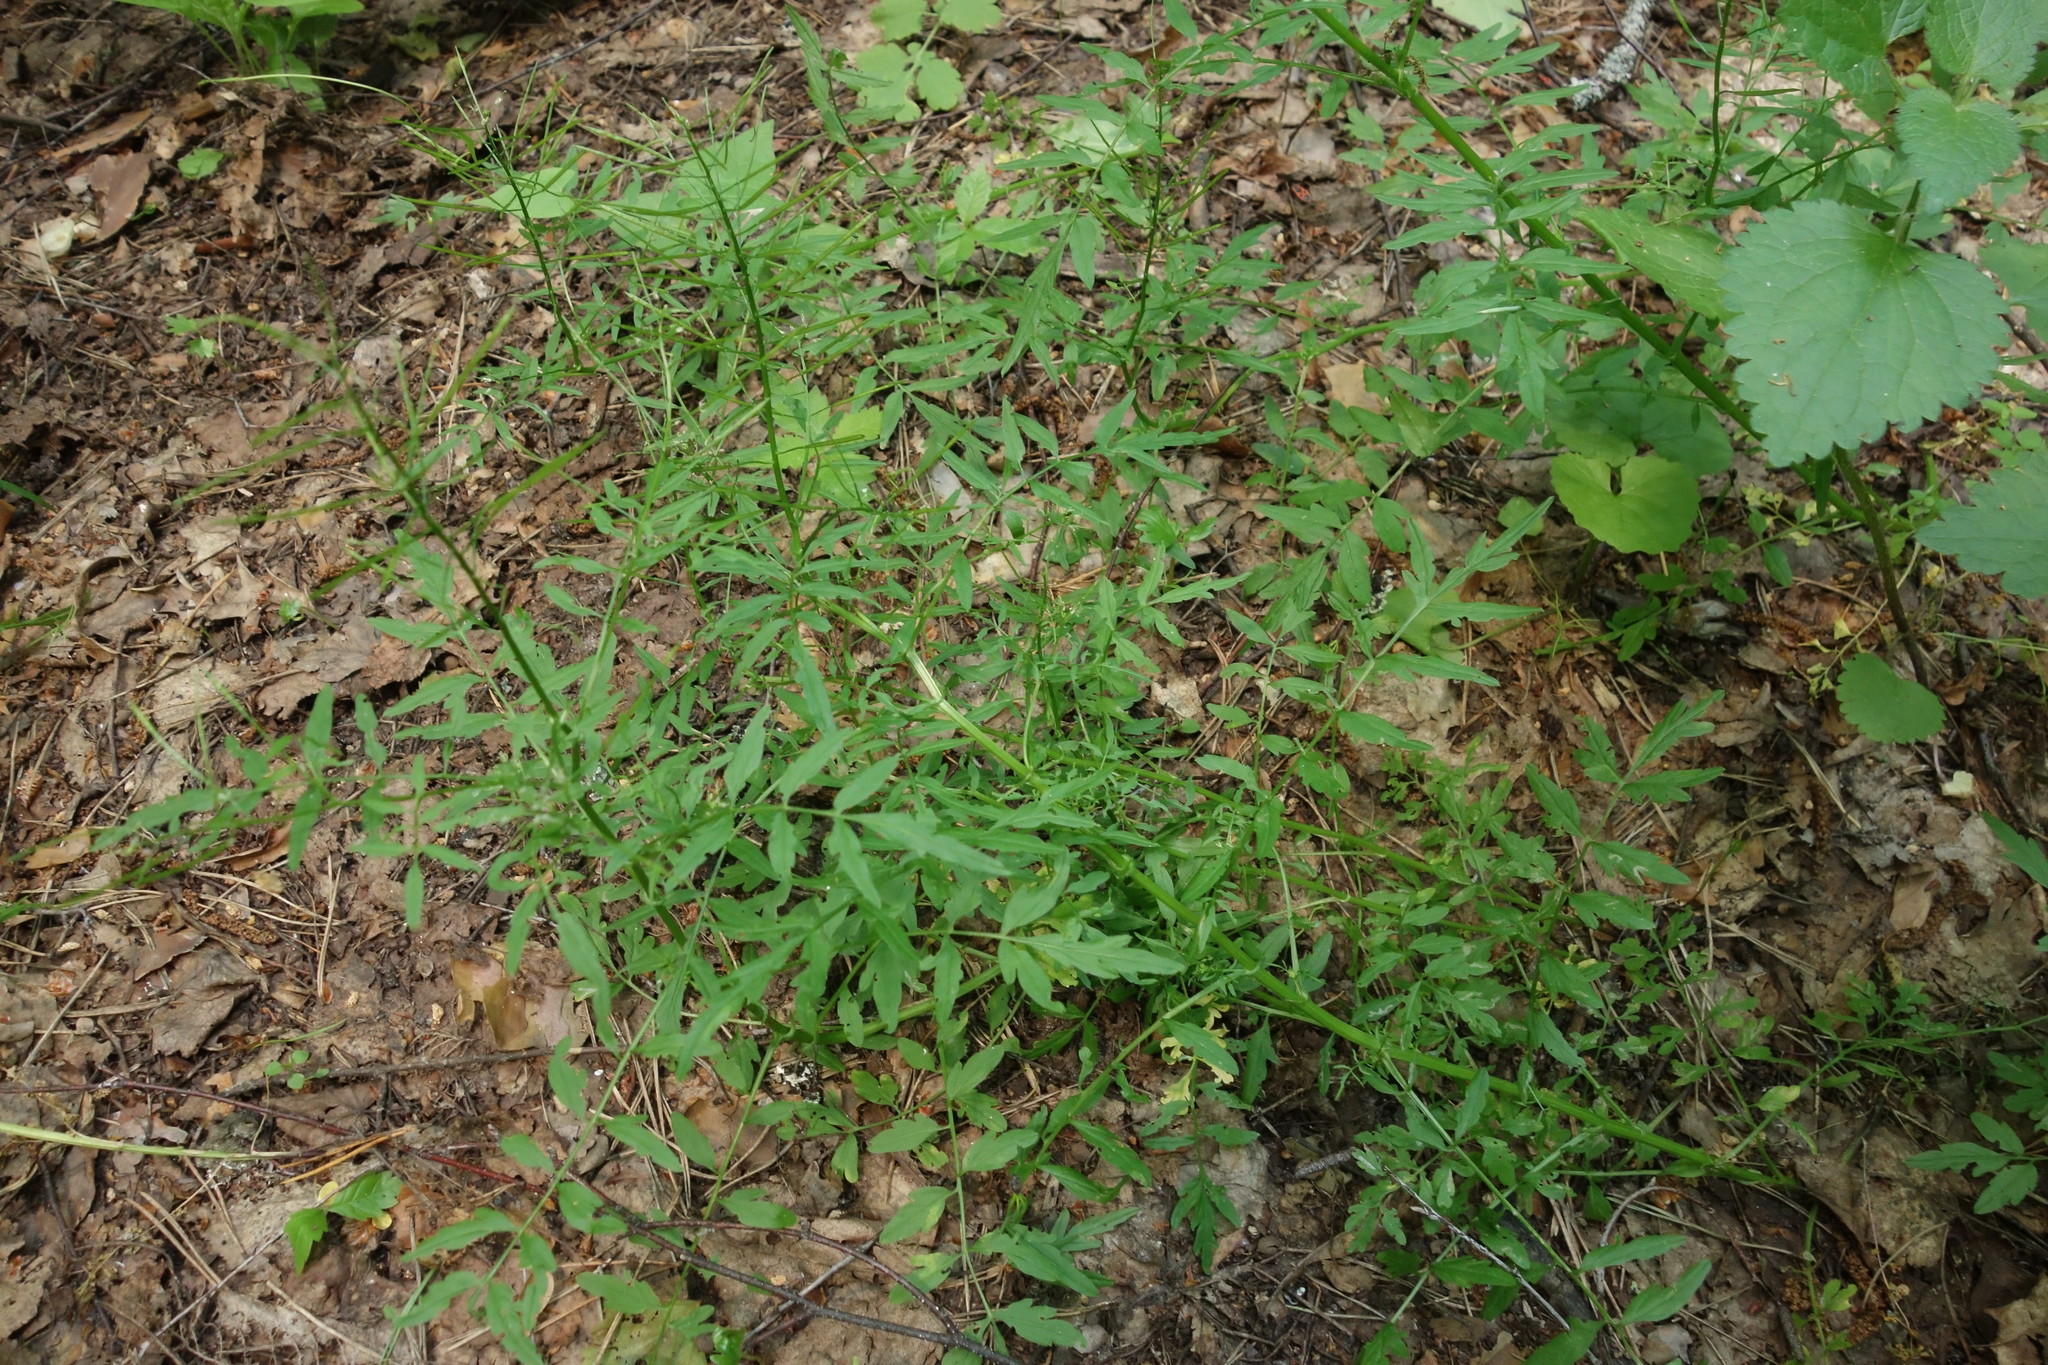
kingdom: Plantae
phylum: Tracheophyta
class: Magnoliopsida
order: Brassicales
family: Brassicaceae
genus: Cardamine
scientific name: Cardamine impatiens
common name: Narrow-leaved bitter-cress
